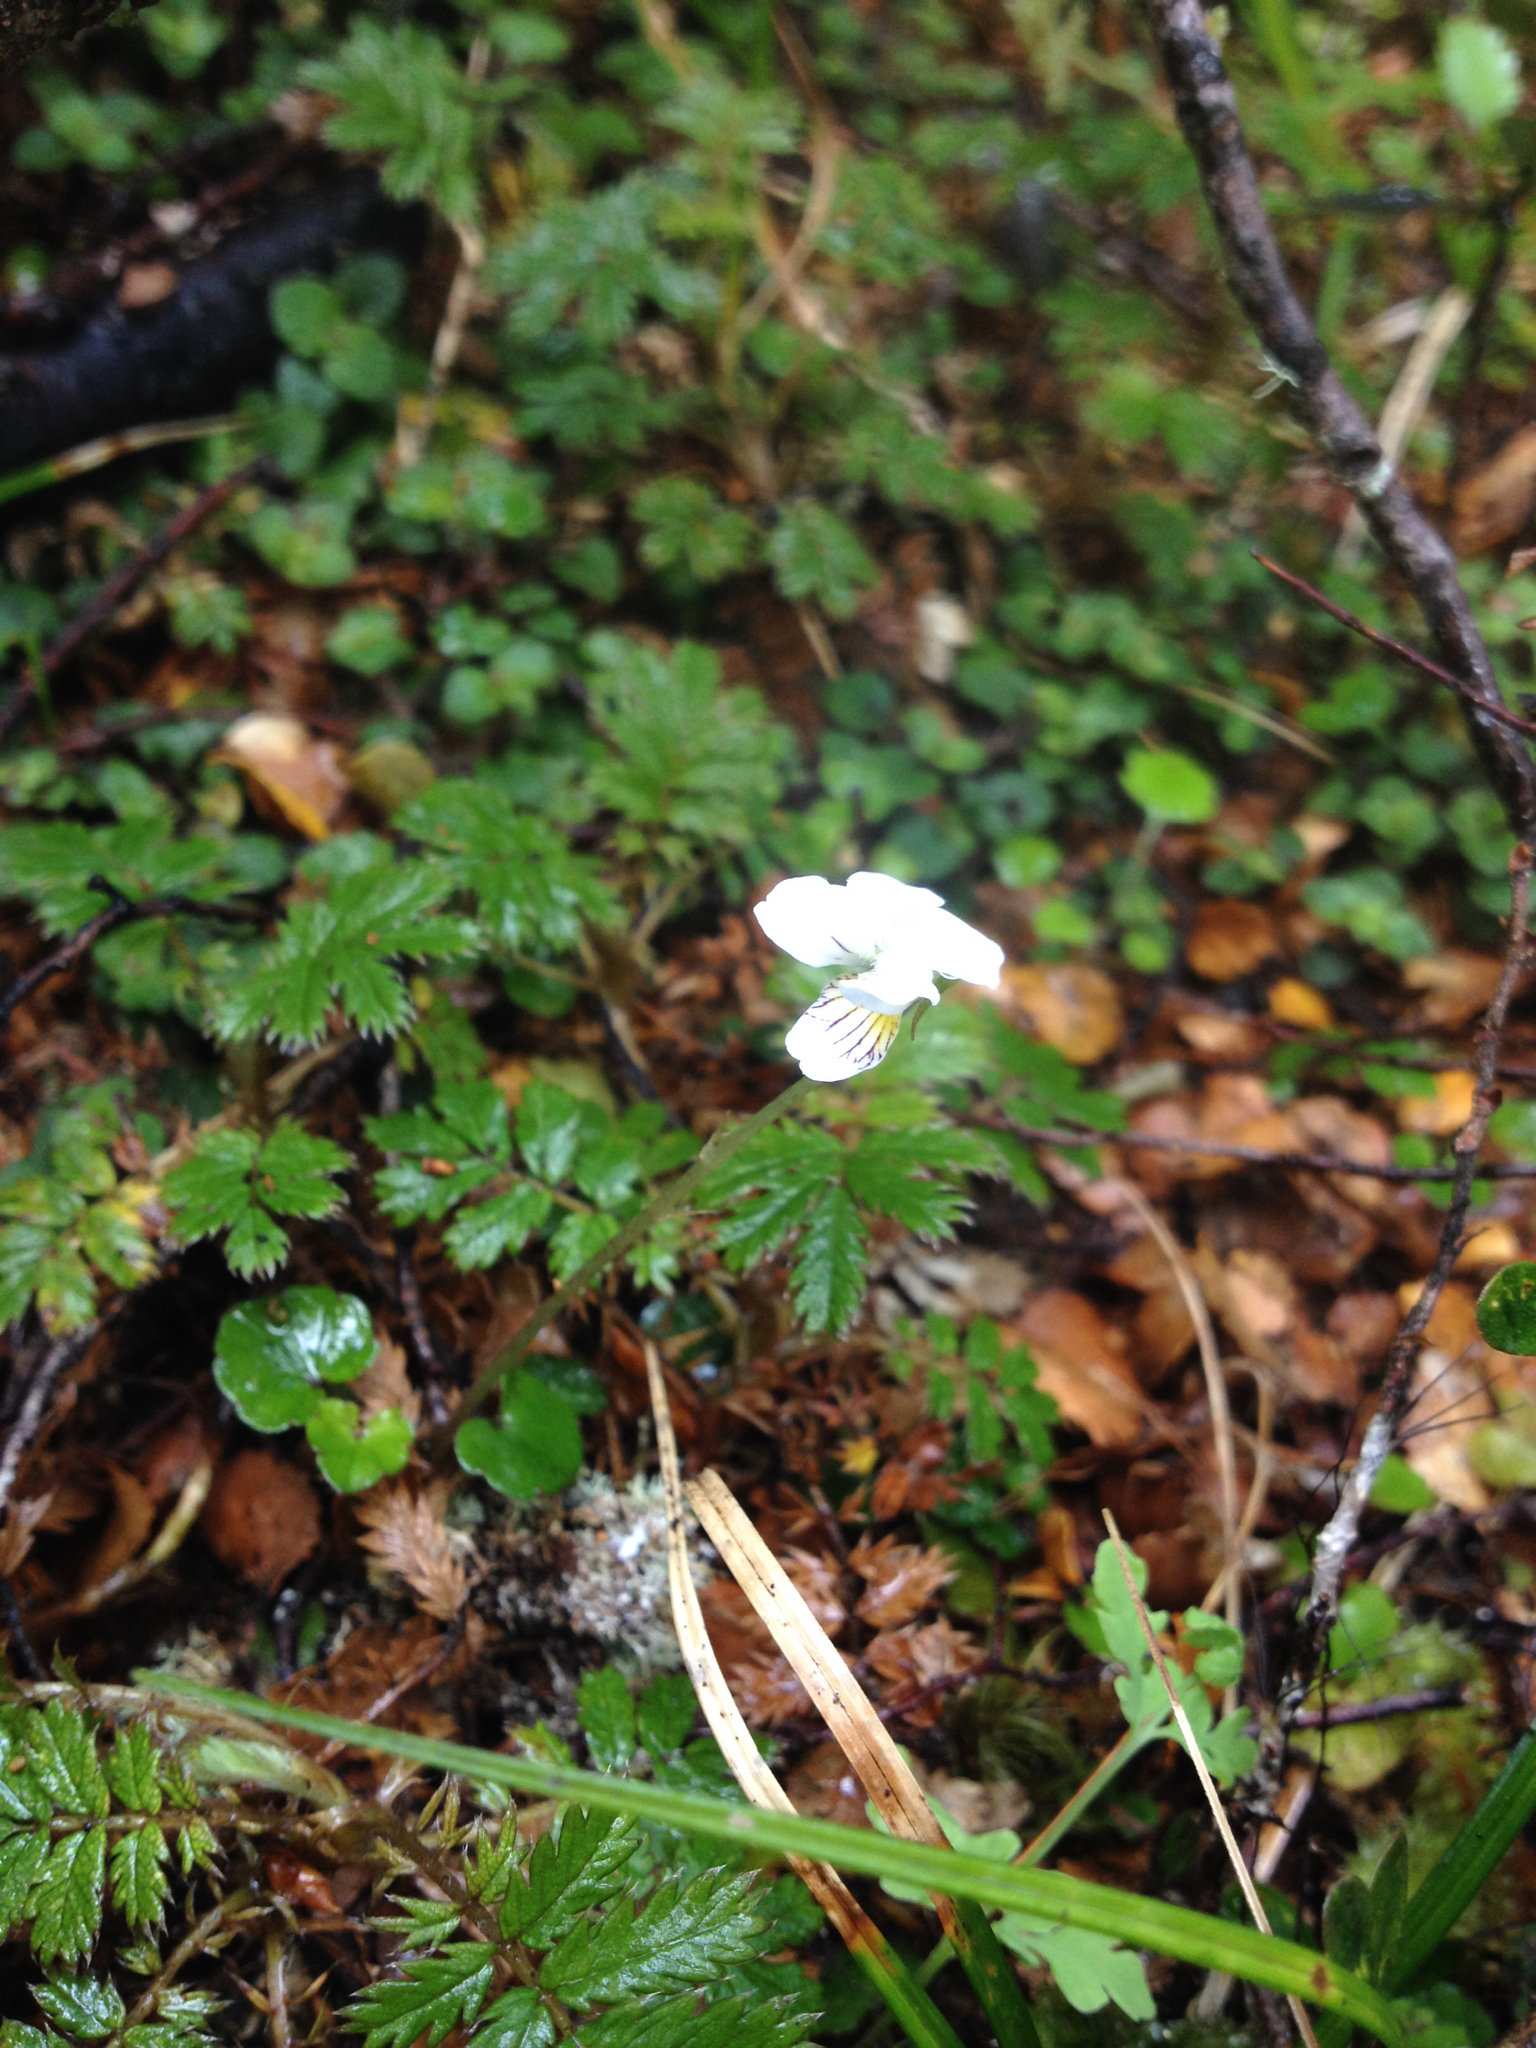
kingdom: Plantae
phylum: Tracheophyta
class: Magnoliopsida
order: Malpighiales
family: Violaceae
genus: Viola
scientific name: Viola filicaulis
